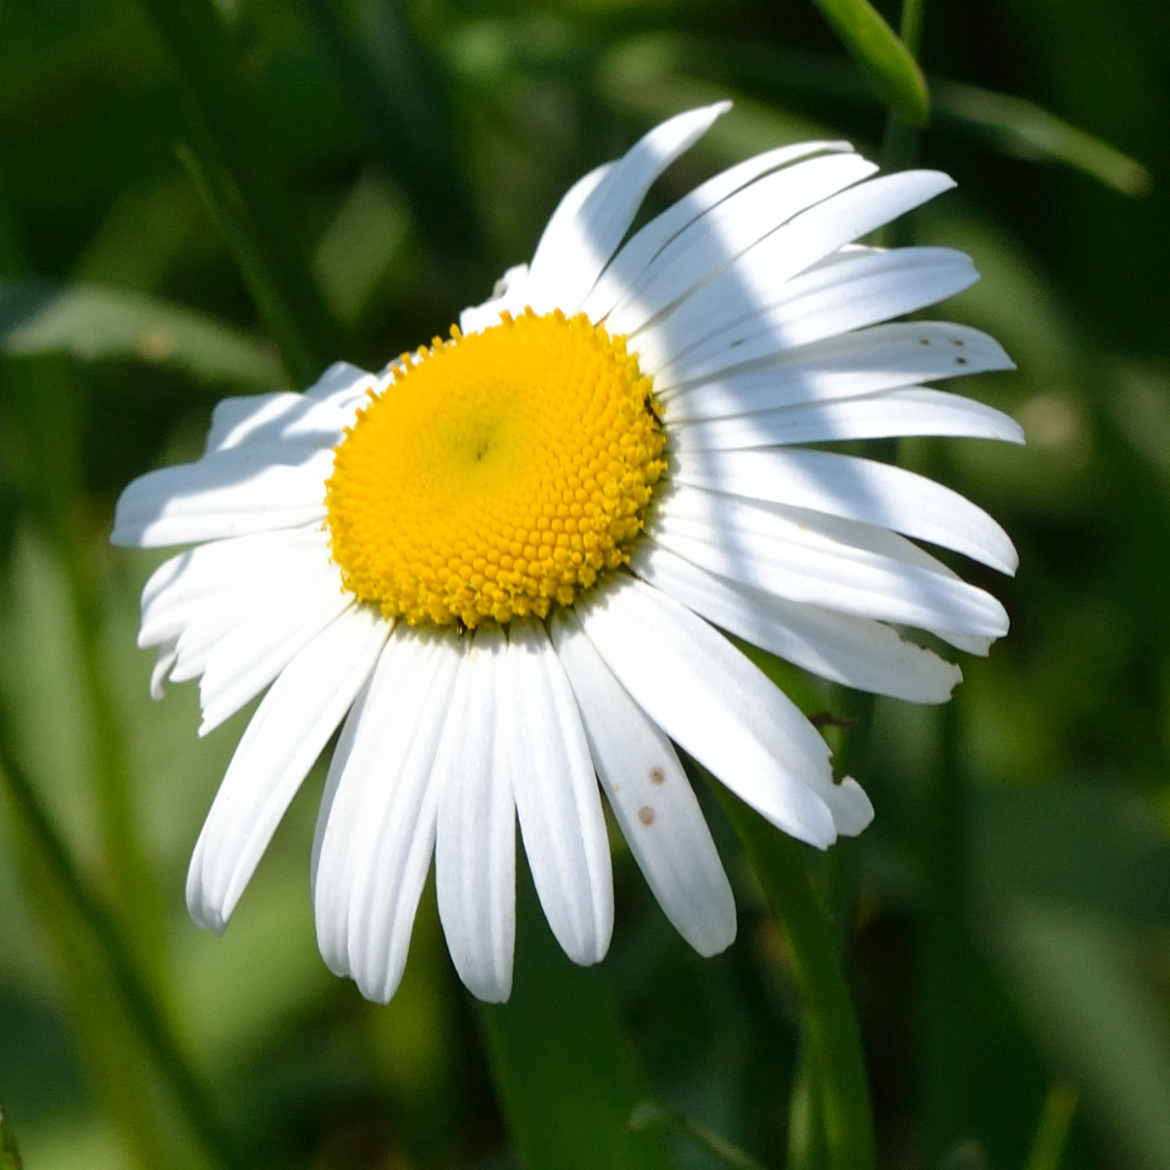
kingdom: Plantae
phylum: Tracheophyta
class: Magnoliopsida
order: Asterales
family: Asteraceae
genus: Leucanthemum
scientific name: Leucanthemum vulgare
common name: Oxeye daisy
